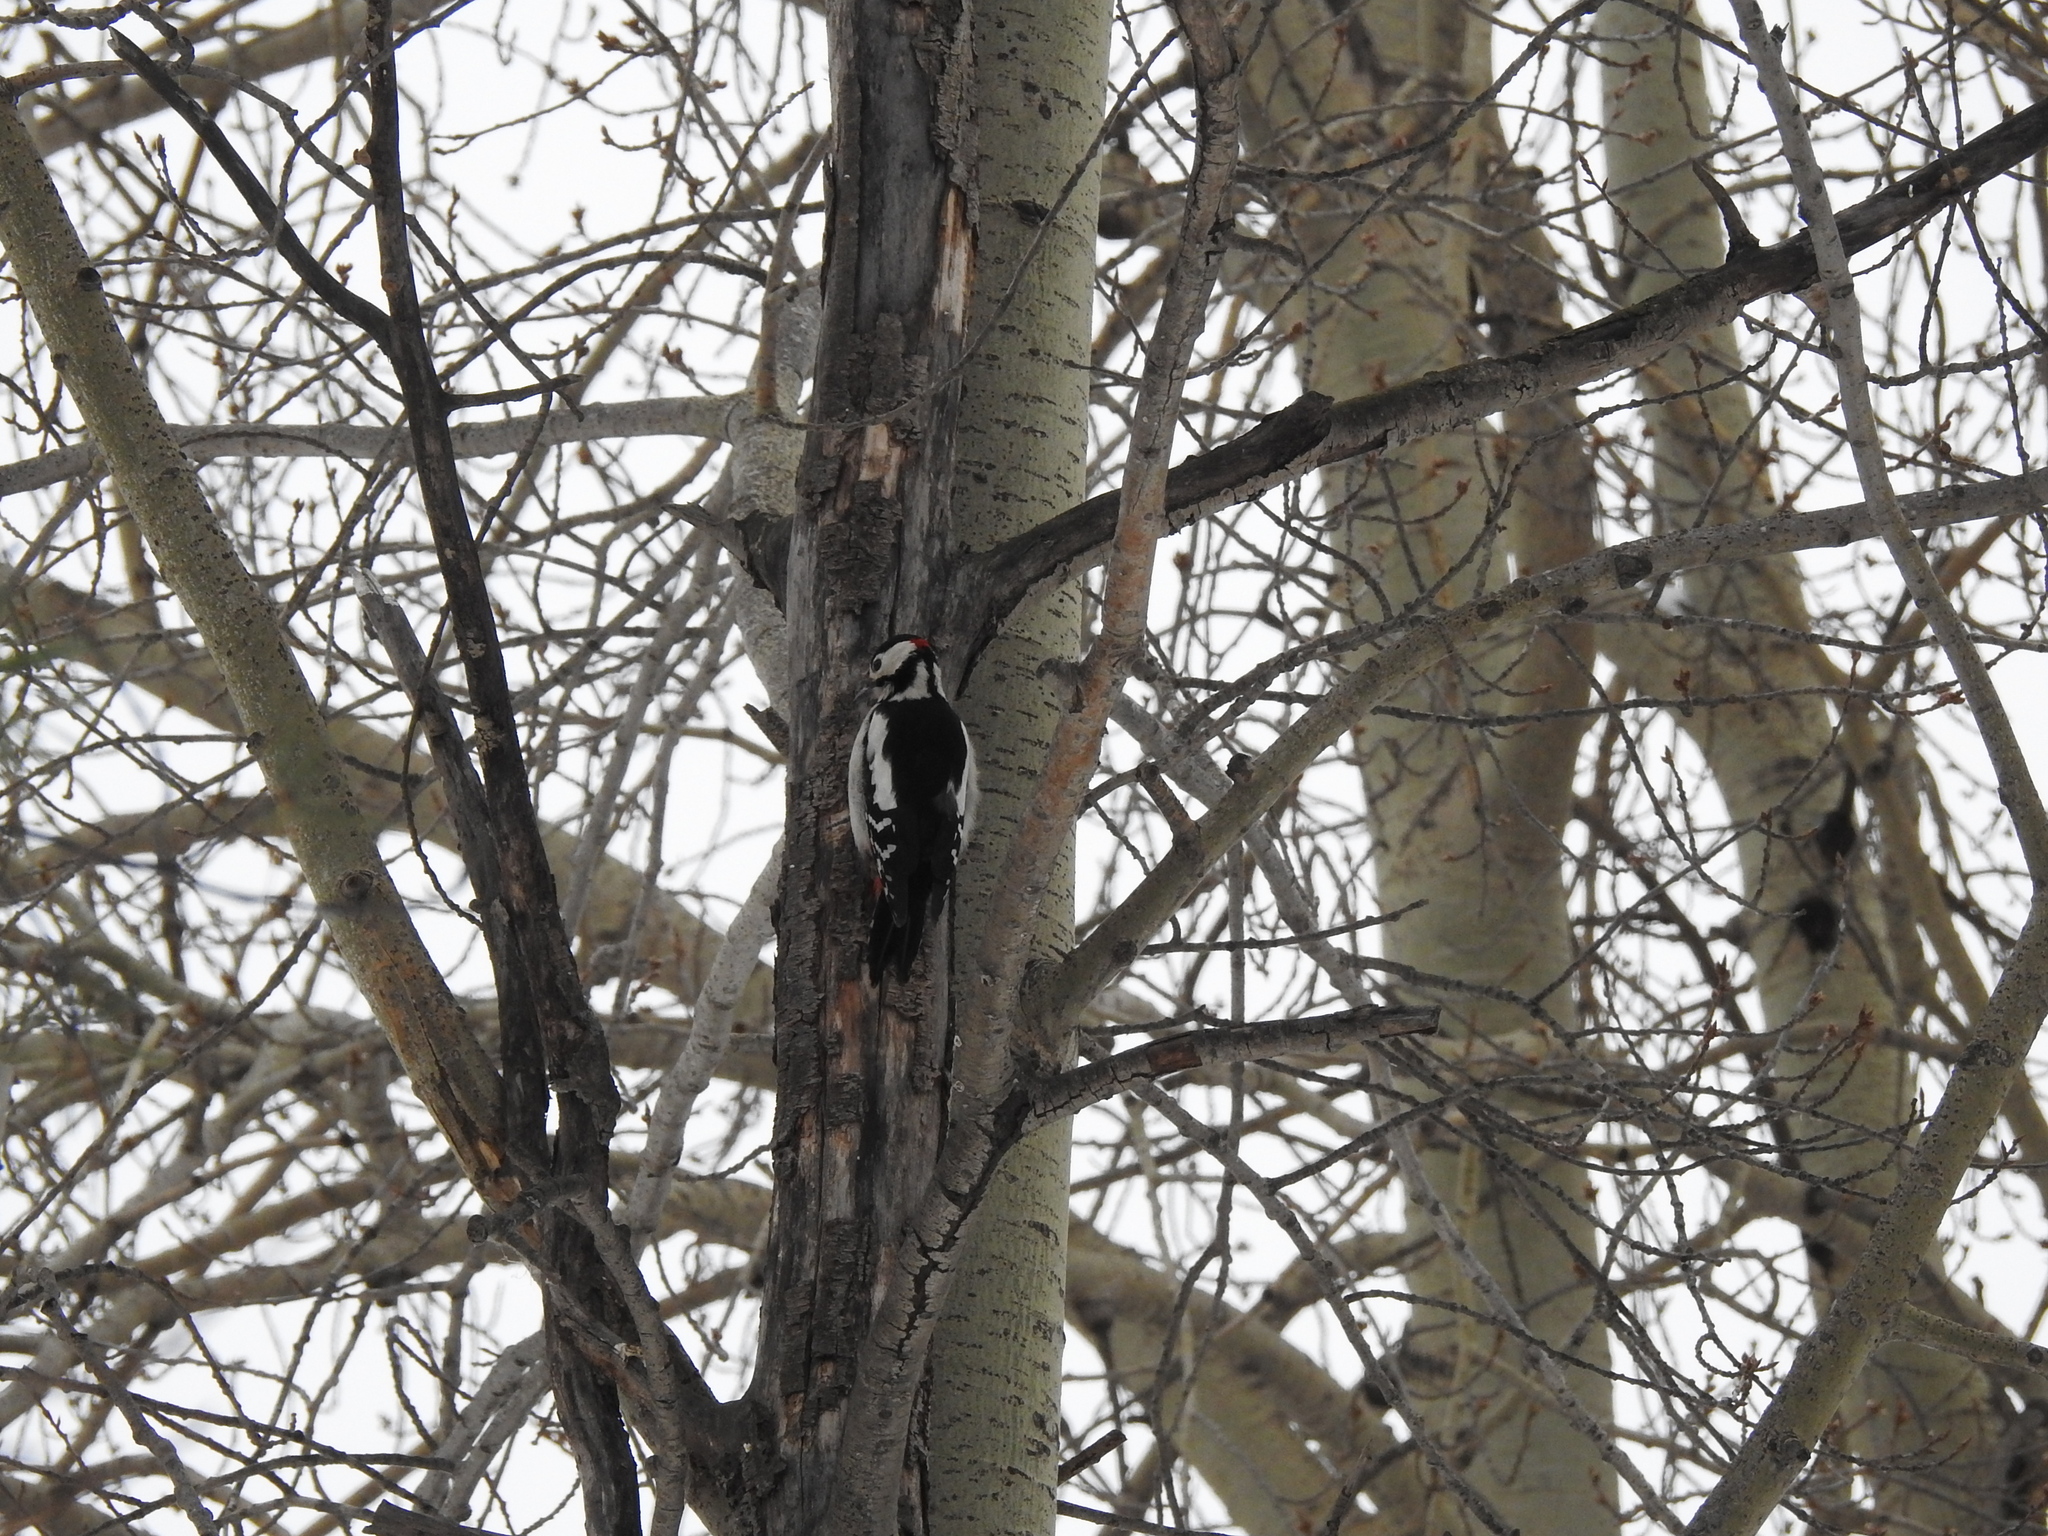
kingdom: Animalia
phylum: Chordata
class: Aves
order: Piciformes
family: Picidae
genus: Dendrocopos
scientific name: Dendrocopos major
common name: Great spotted woodpecker
